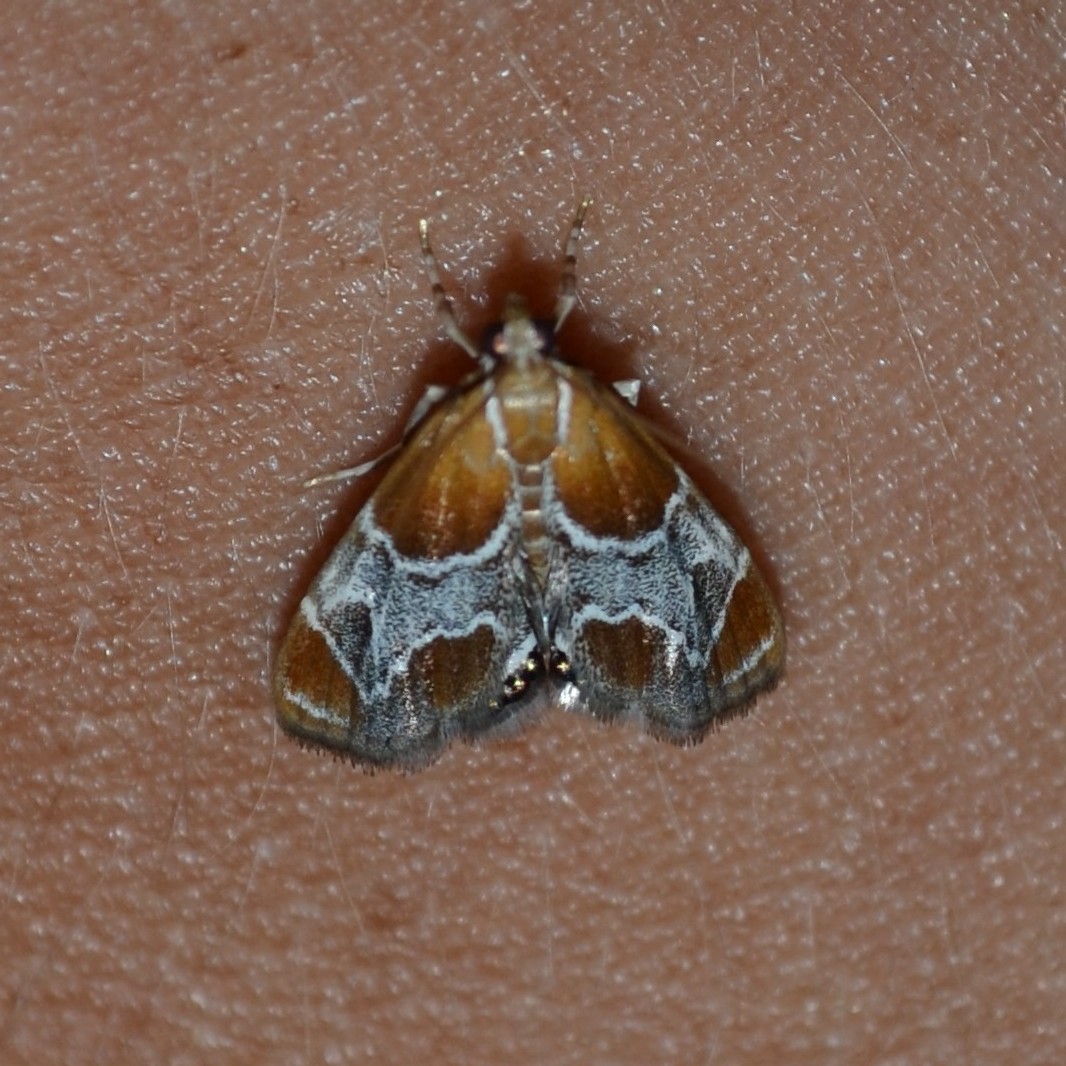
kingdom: Animalia
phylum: Arthropoda
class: Insecta
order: Lepidoptera
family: Crambidae
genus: Chalcoela
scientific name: Chalcoela pegasalis
